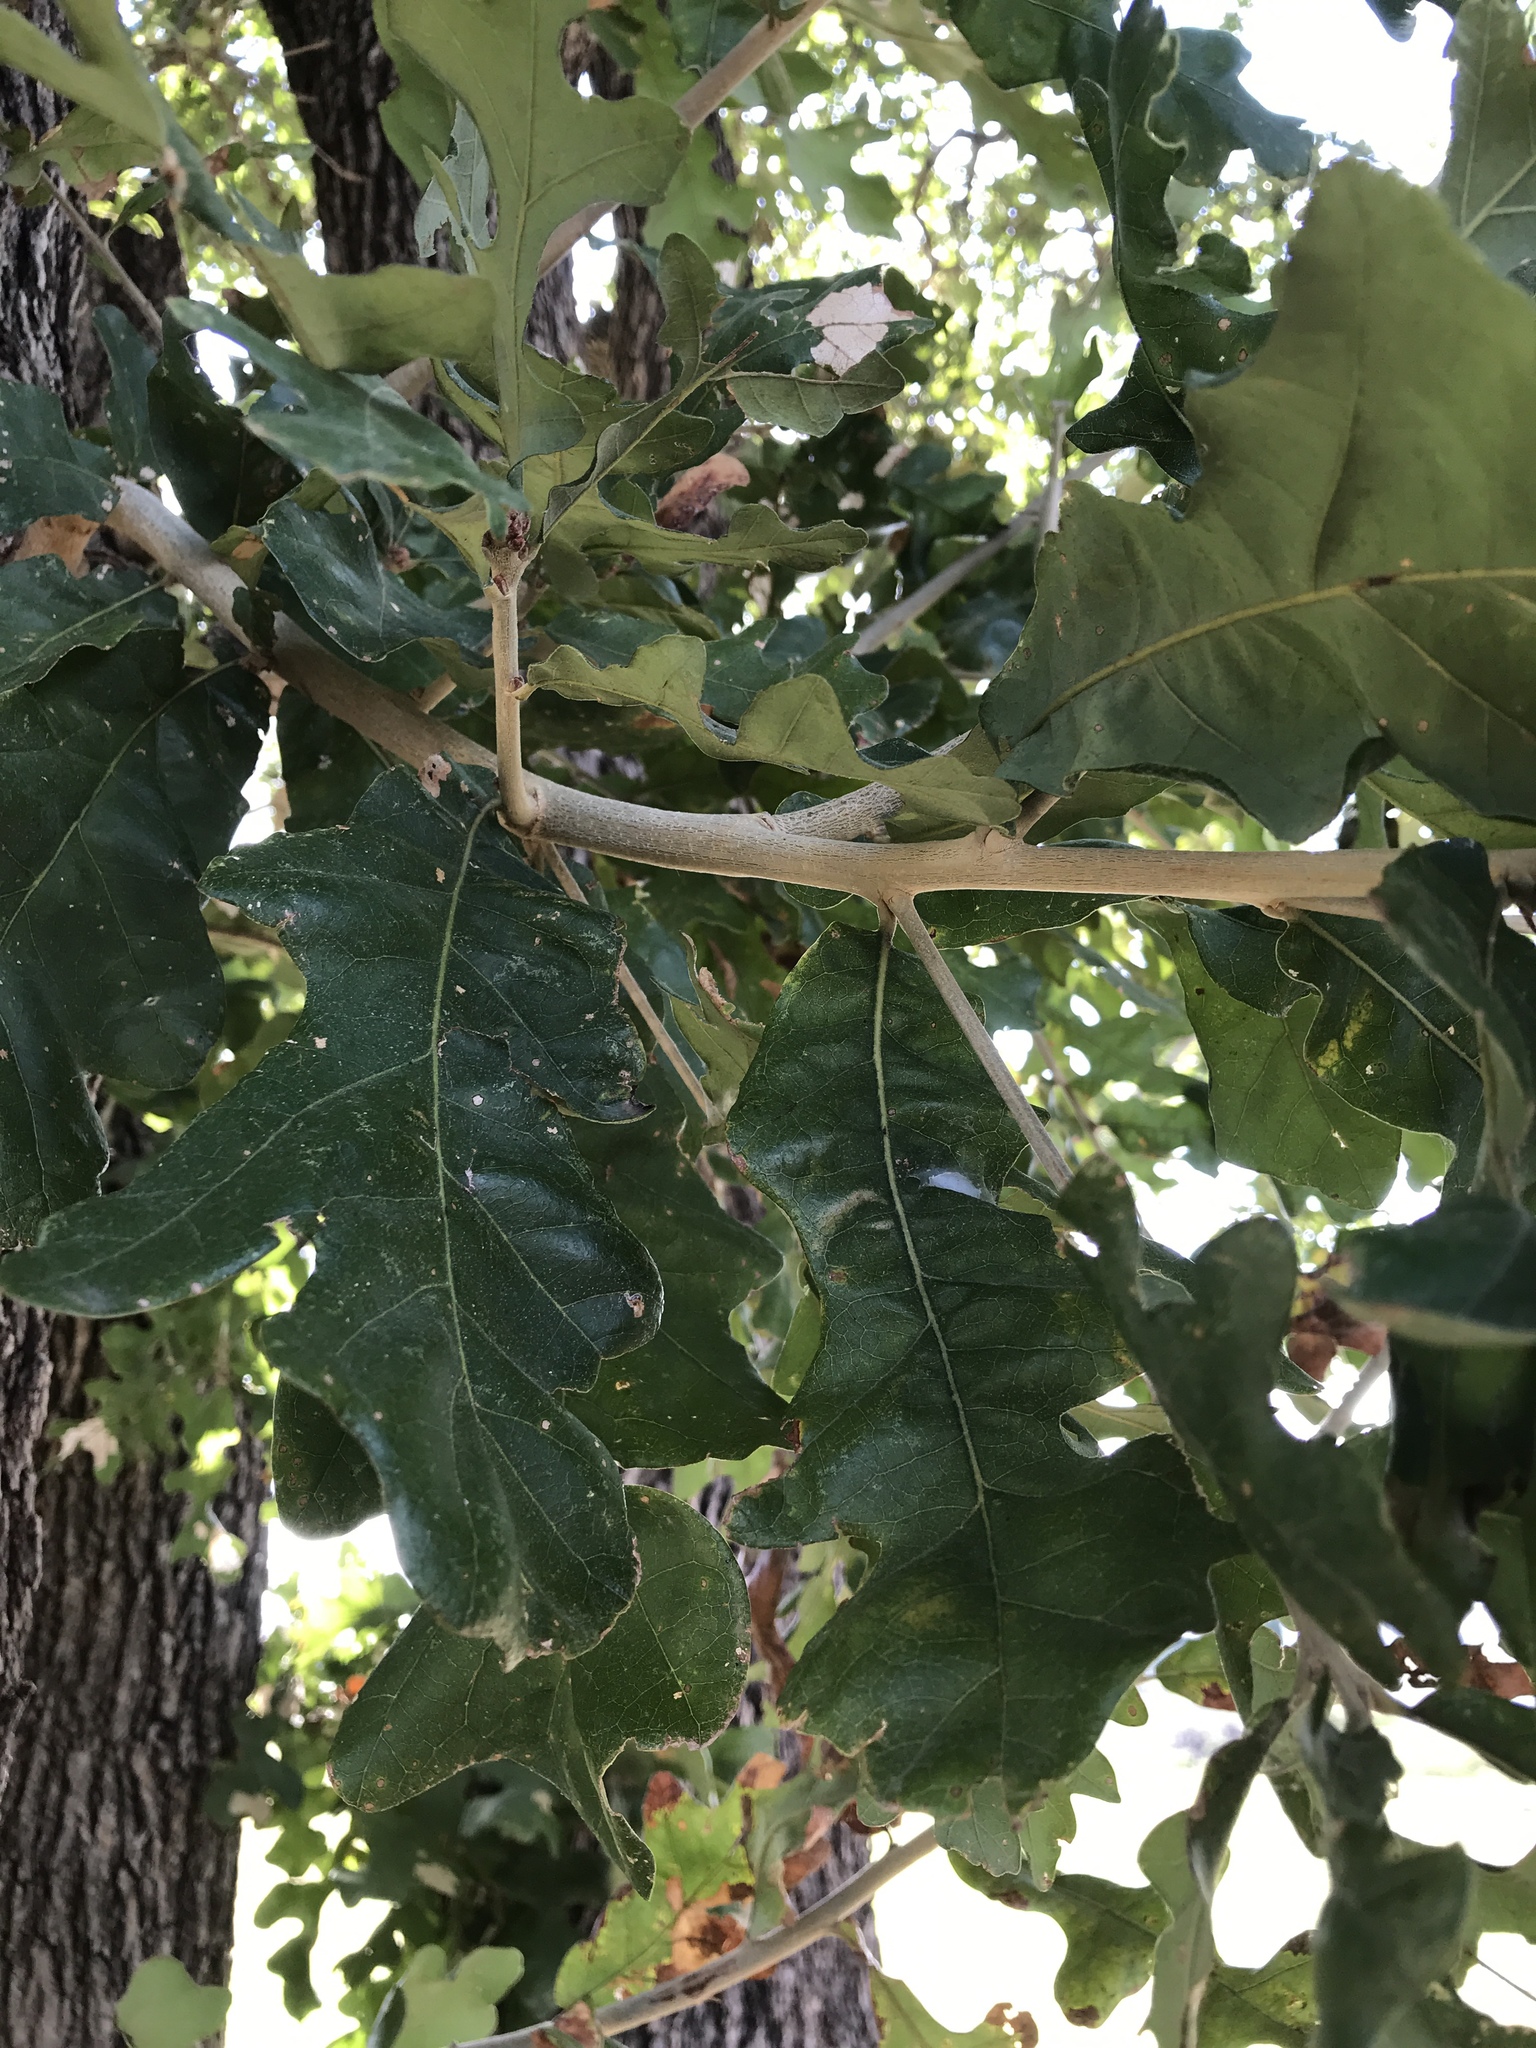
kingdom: Plantae
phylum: Tracheophyta
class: Magnoliopsida
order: Fagales
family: Fagaceae
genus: Quercus
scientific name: Quercus stellata
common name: Post oak
